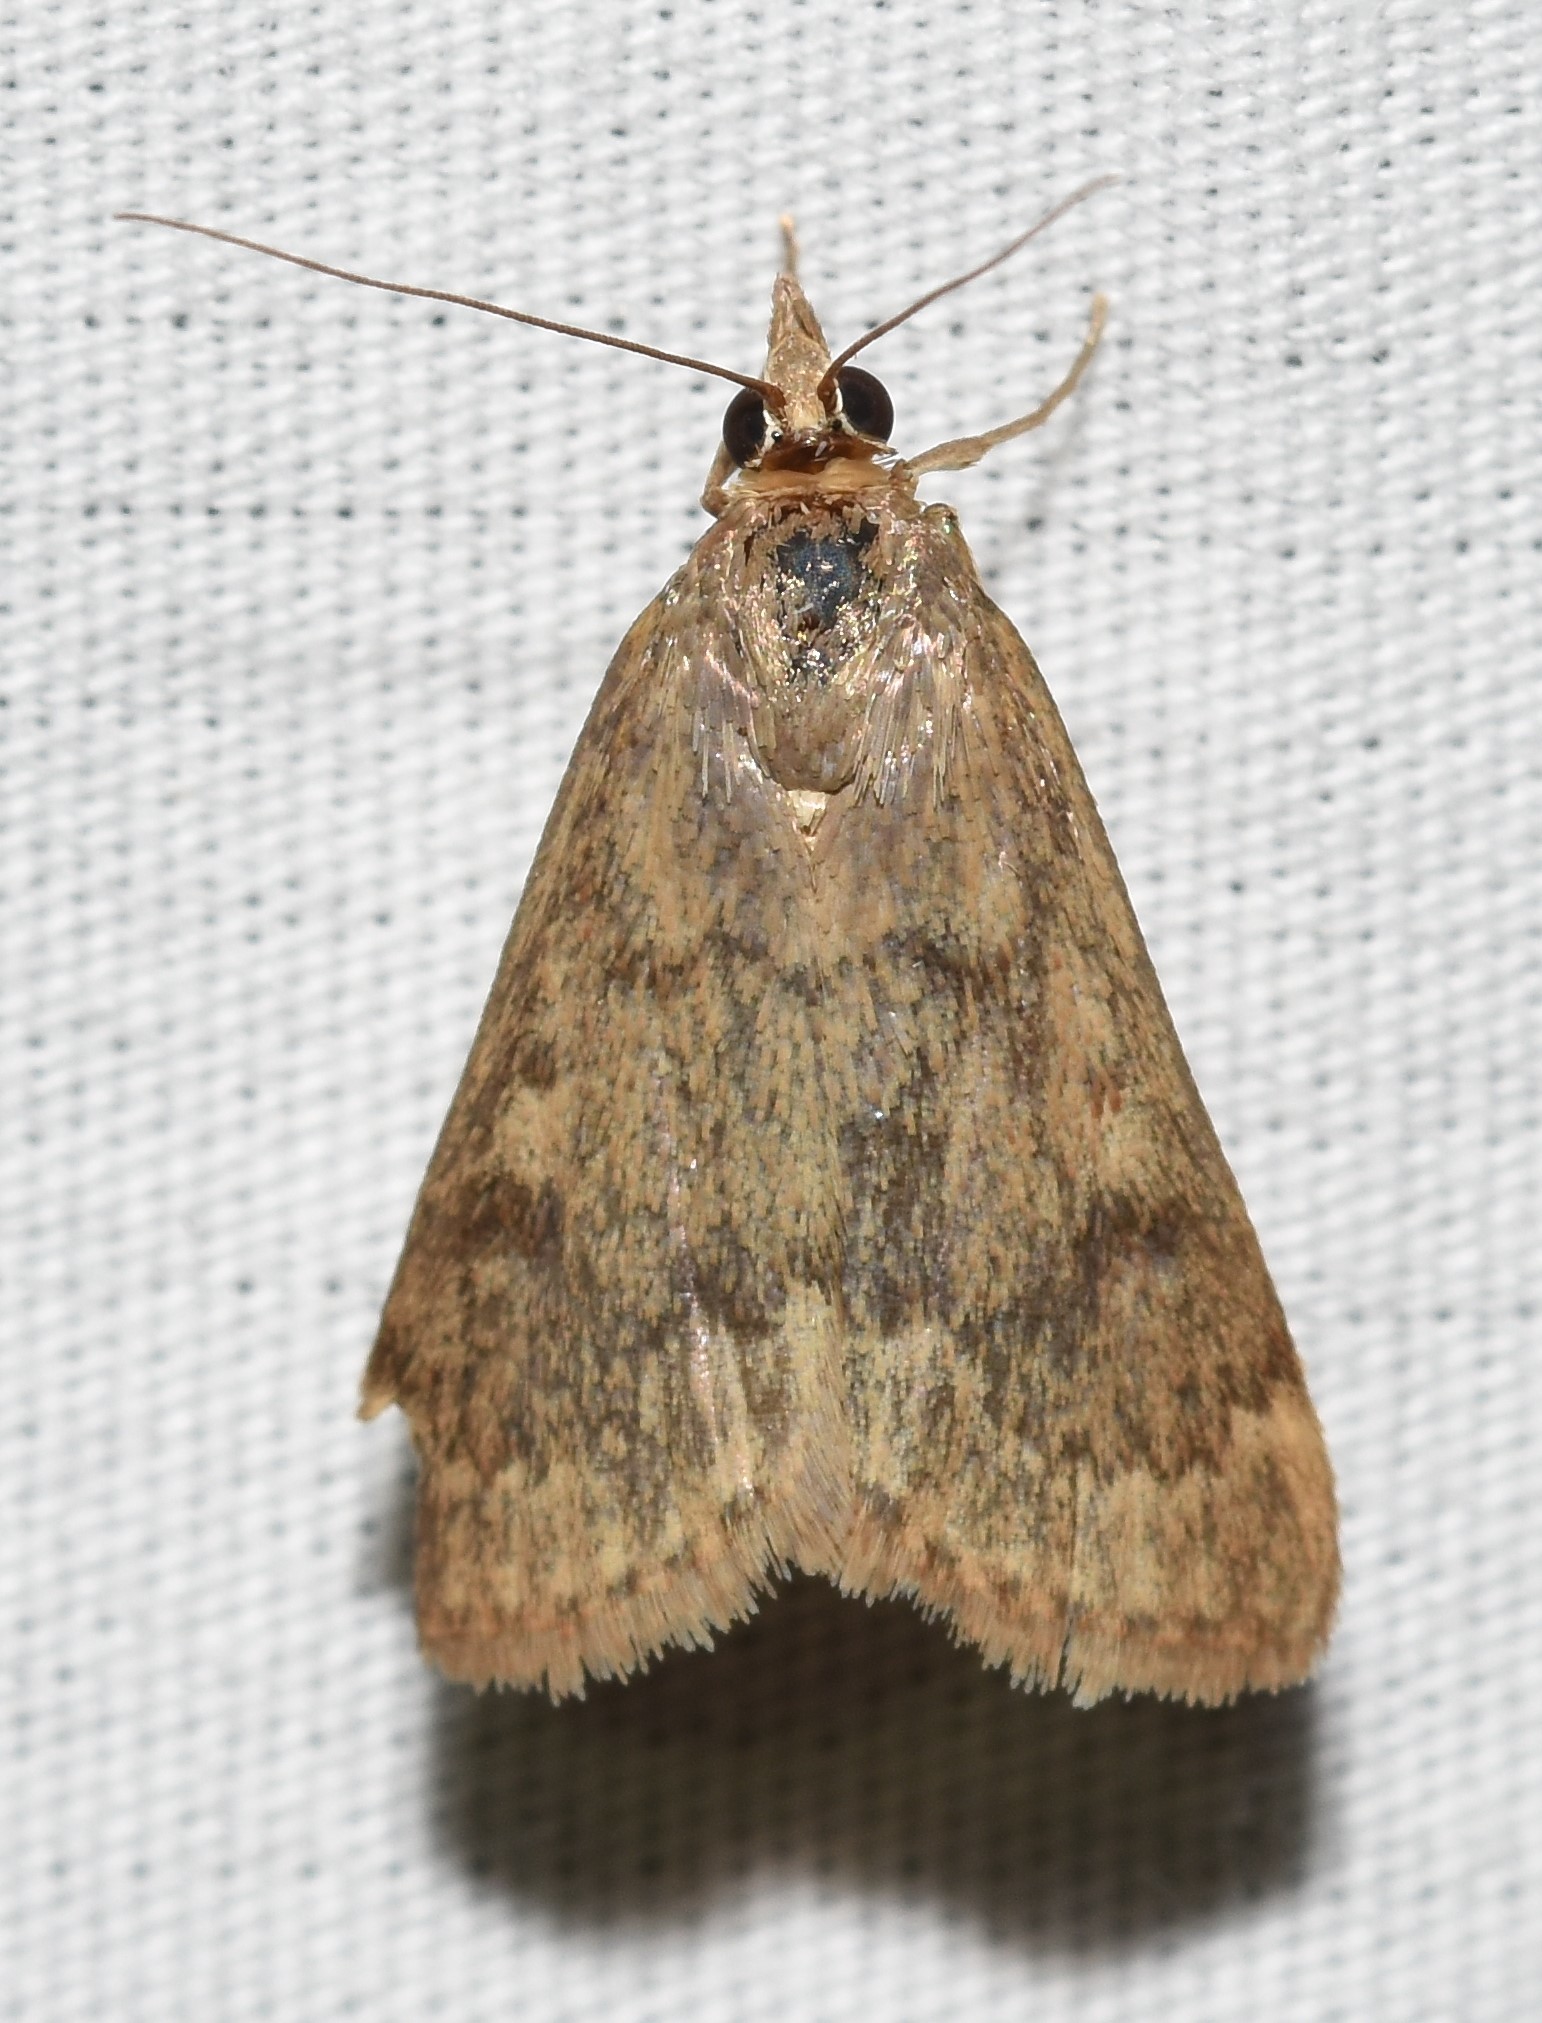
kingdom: Animalia
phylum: Arthropoda
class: Insecta
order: Lepidoptera
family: Crambidae
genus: Achyra
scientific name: Achyra rantalis
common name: Garden webworm
